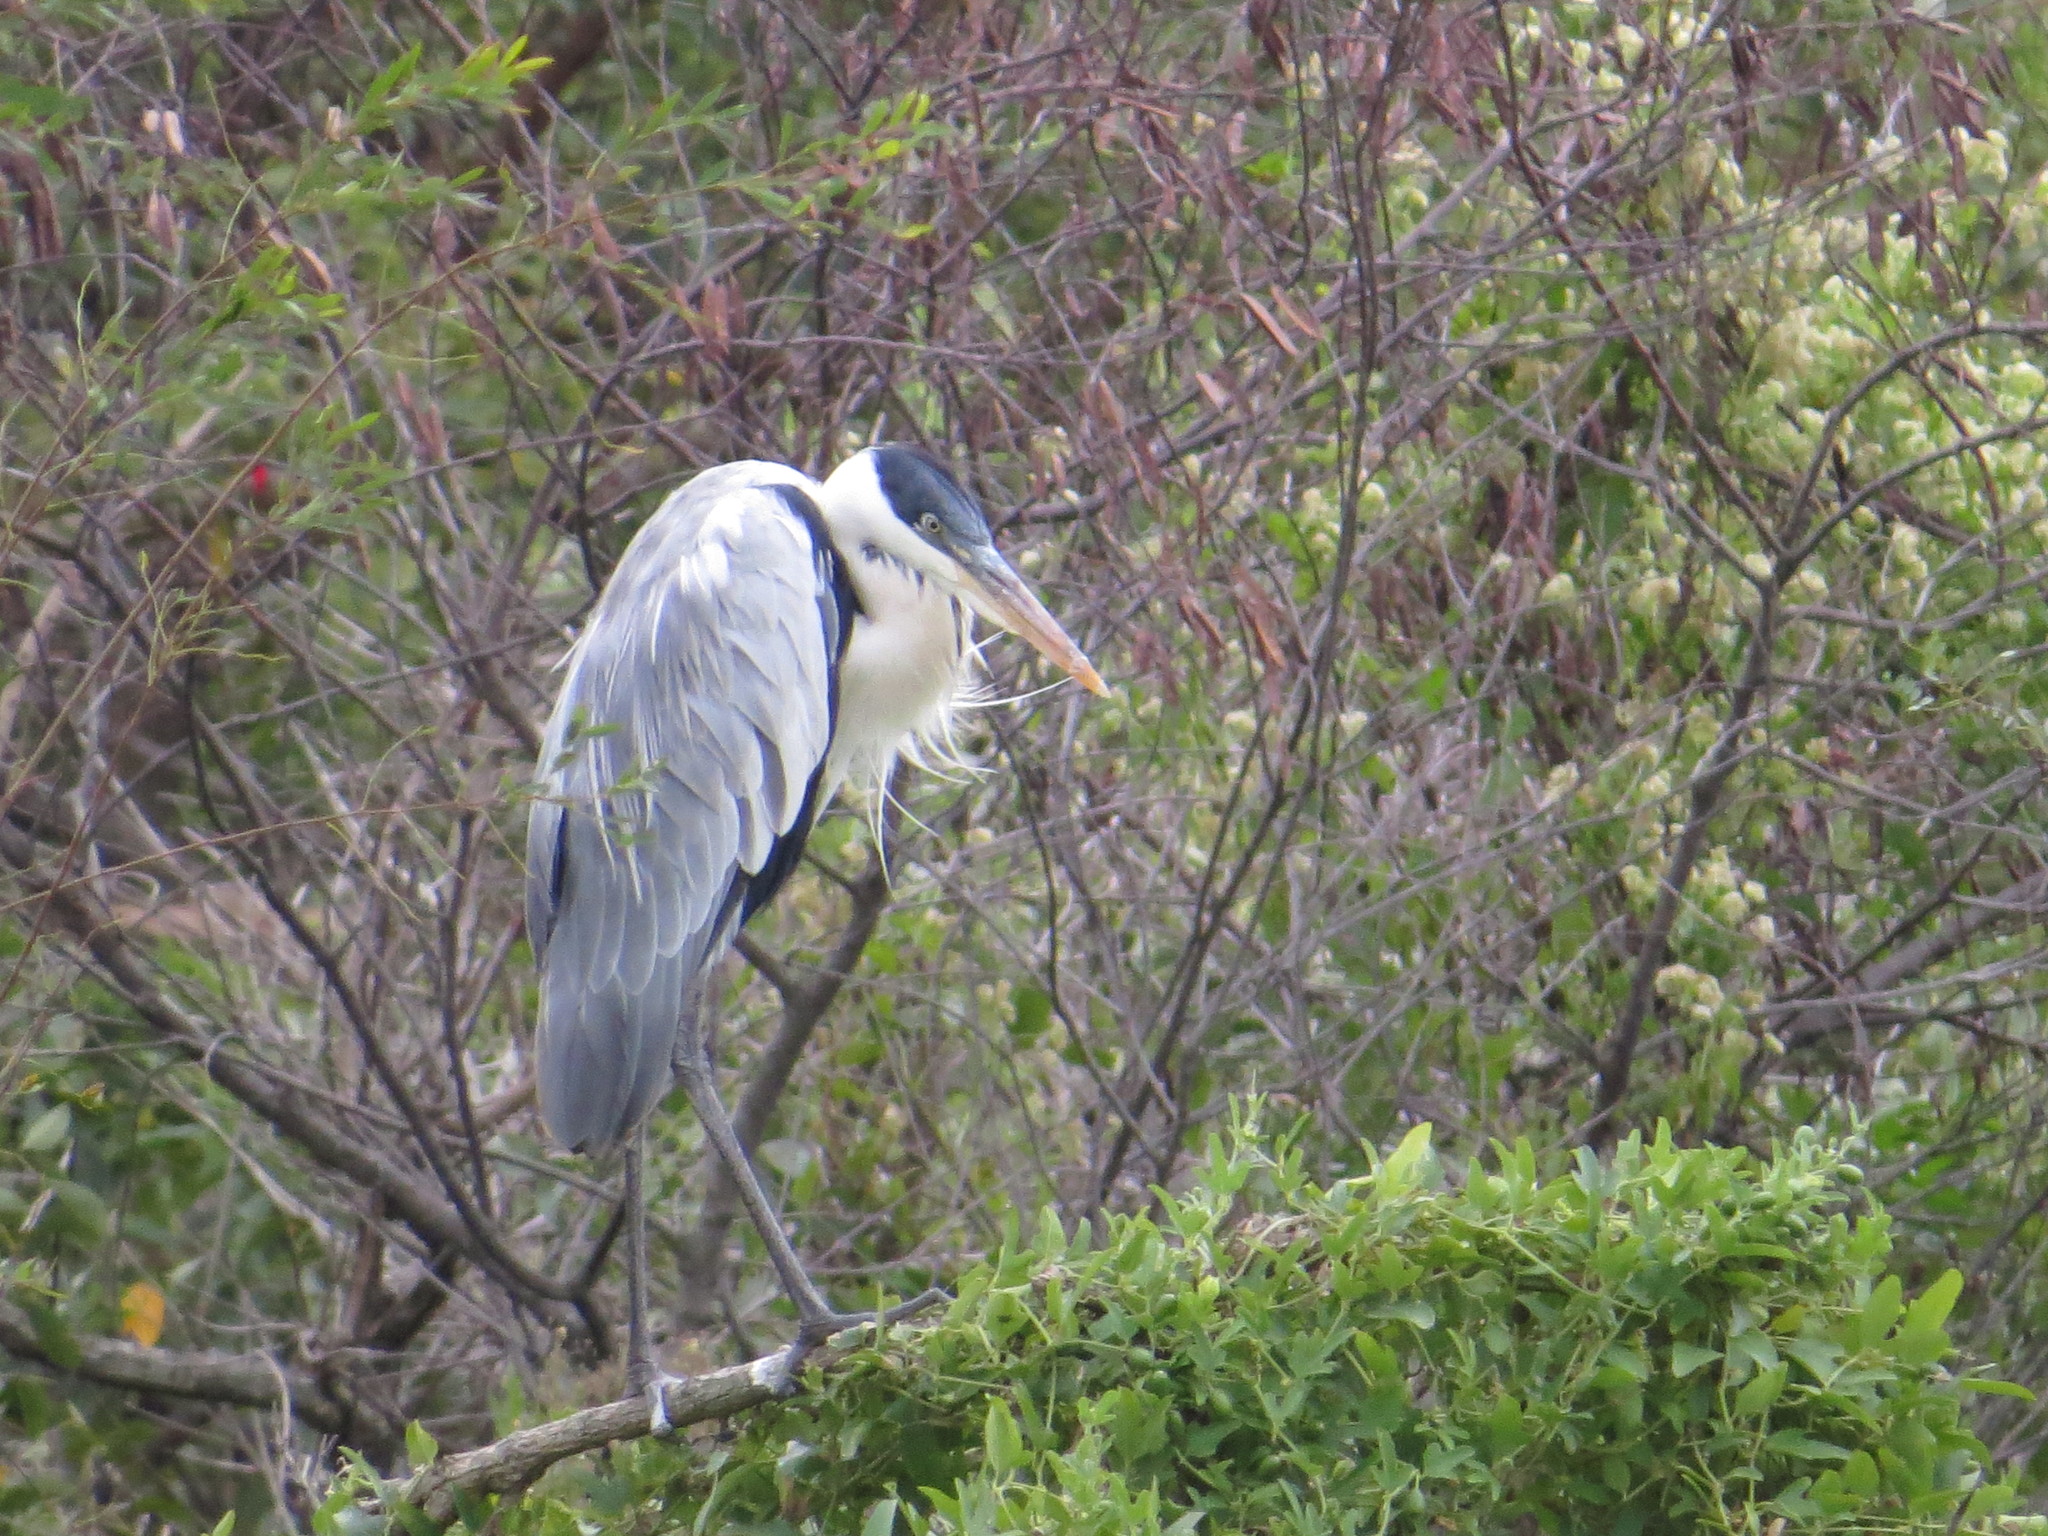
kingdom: Animalia
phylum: Chordata
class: Aves
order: Pelecaniformes
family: Ardeidae
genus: Ardea
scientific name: Ardea cocoi
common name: Cocoi heron
